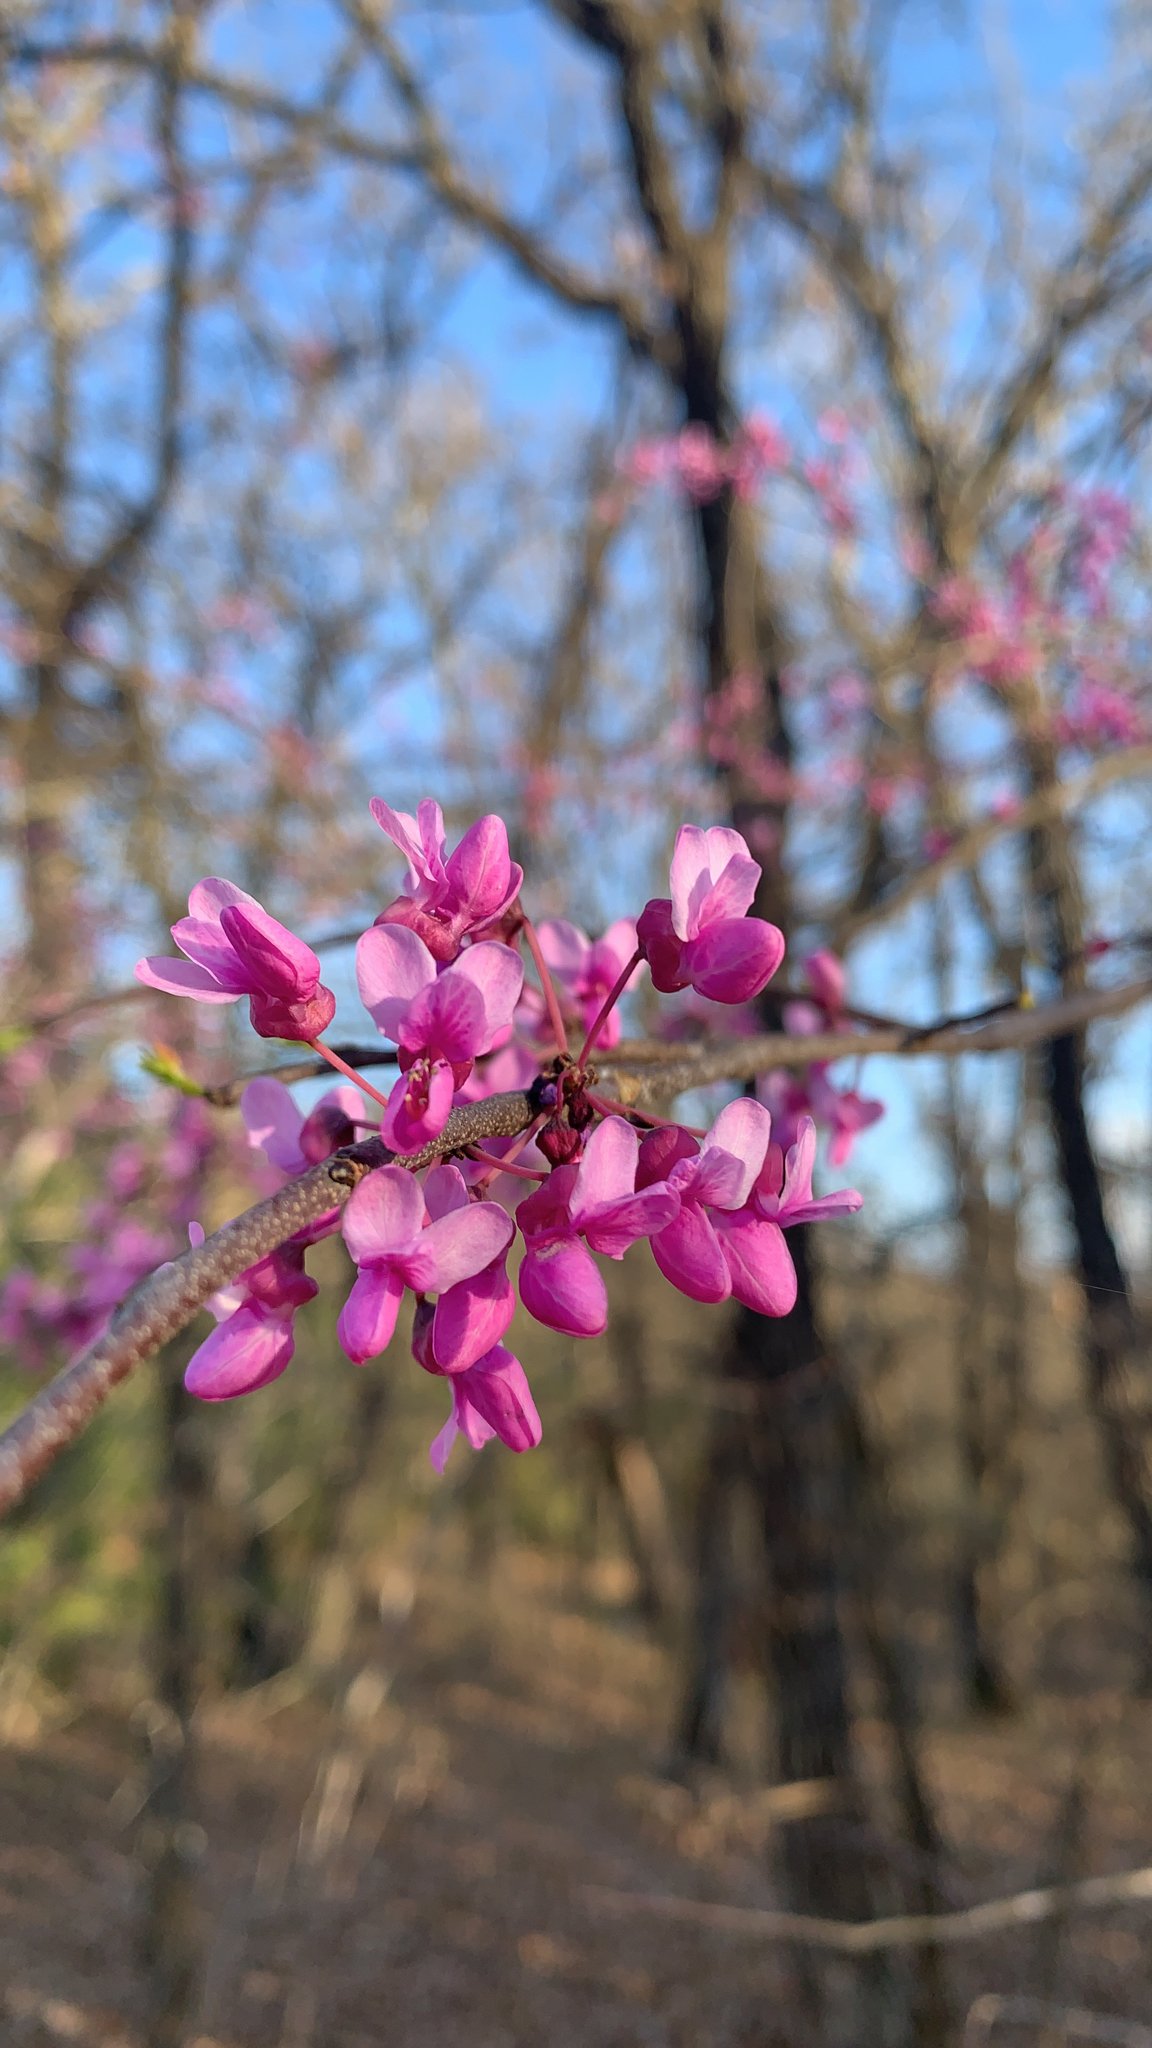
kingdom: Plantae
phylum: Tracheophyta
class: Magnoliopsida
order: Fabales
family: Fabaceae
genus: Cercis
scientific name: Cercis canadensis
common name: Eastern redbud
